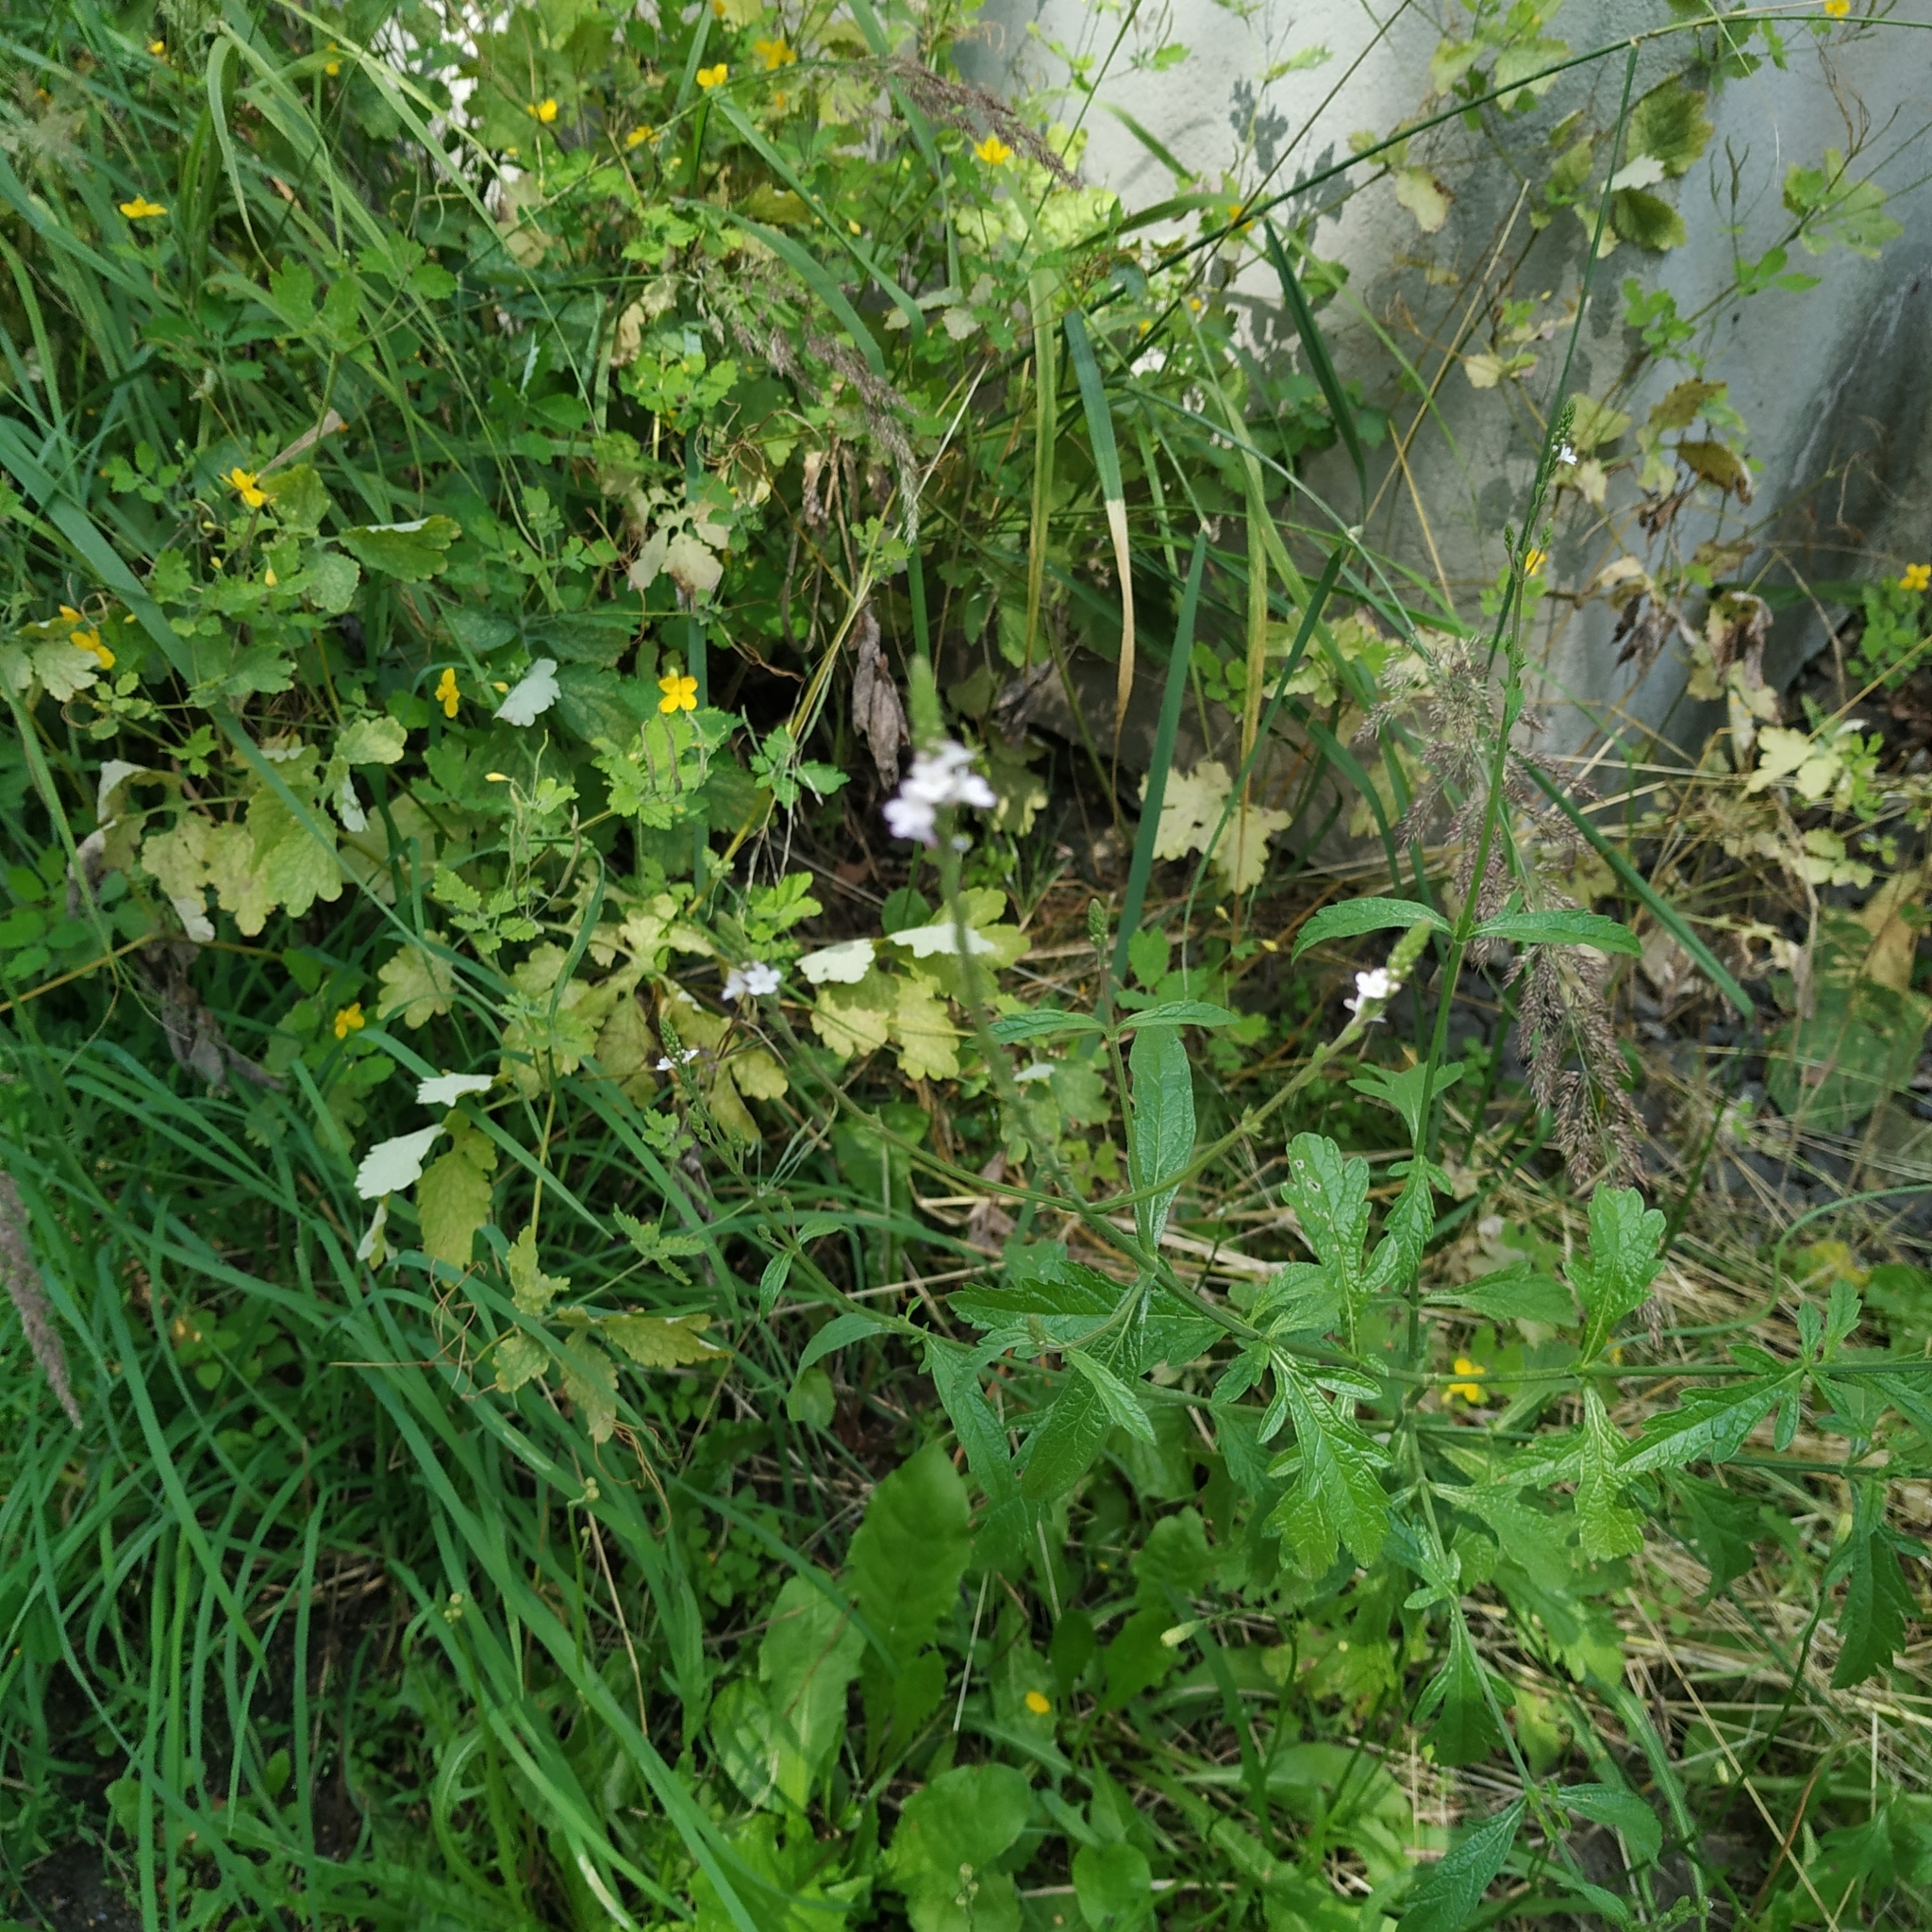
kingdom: Plantae
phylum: Tracheophyta
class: Magnoliopsida
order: Lamiales
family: Verbenaceae
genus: Verbena
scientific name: Verbena officinalis
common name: Vervain
